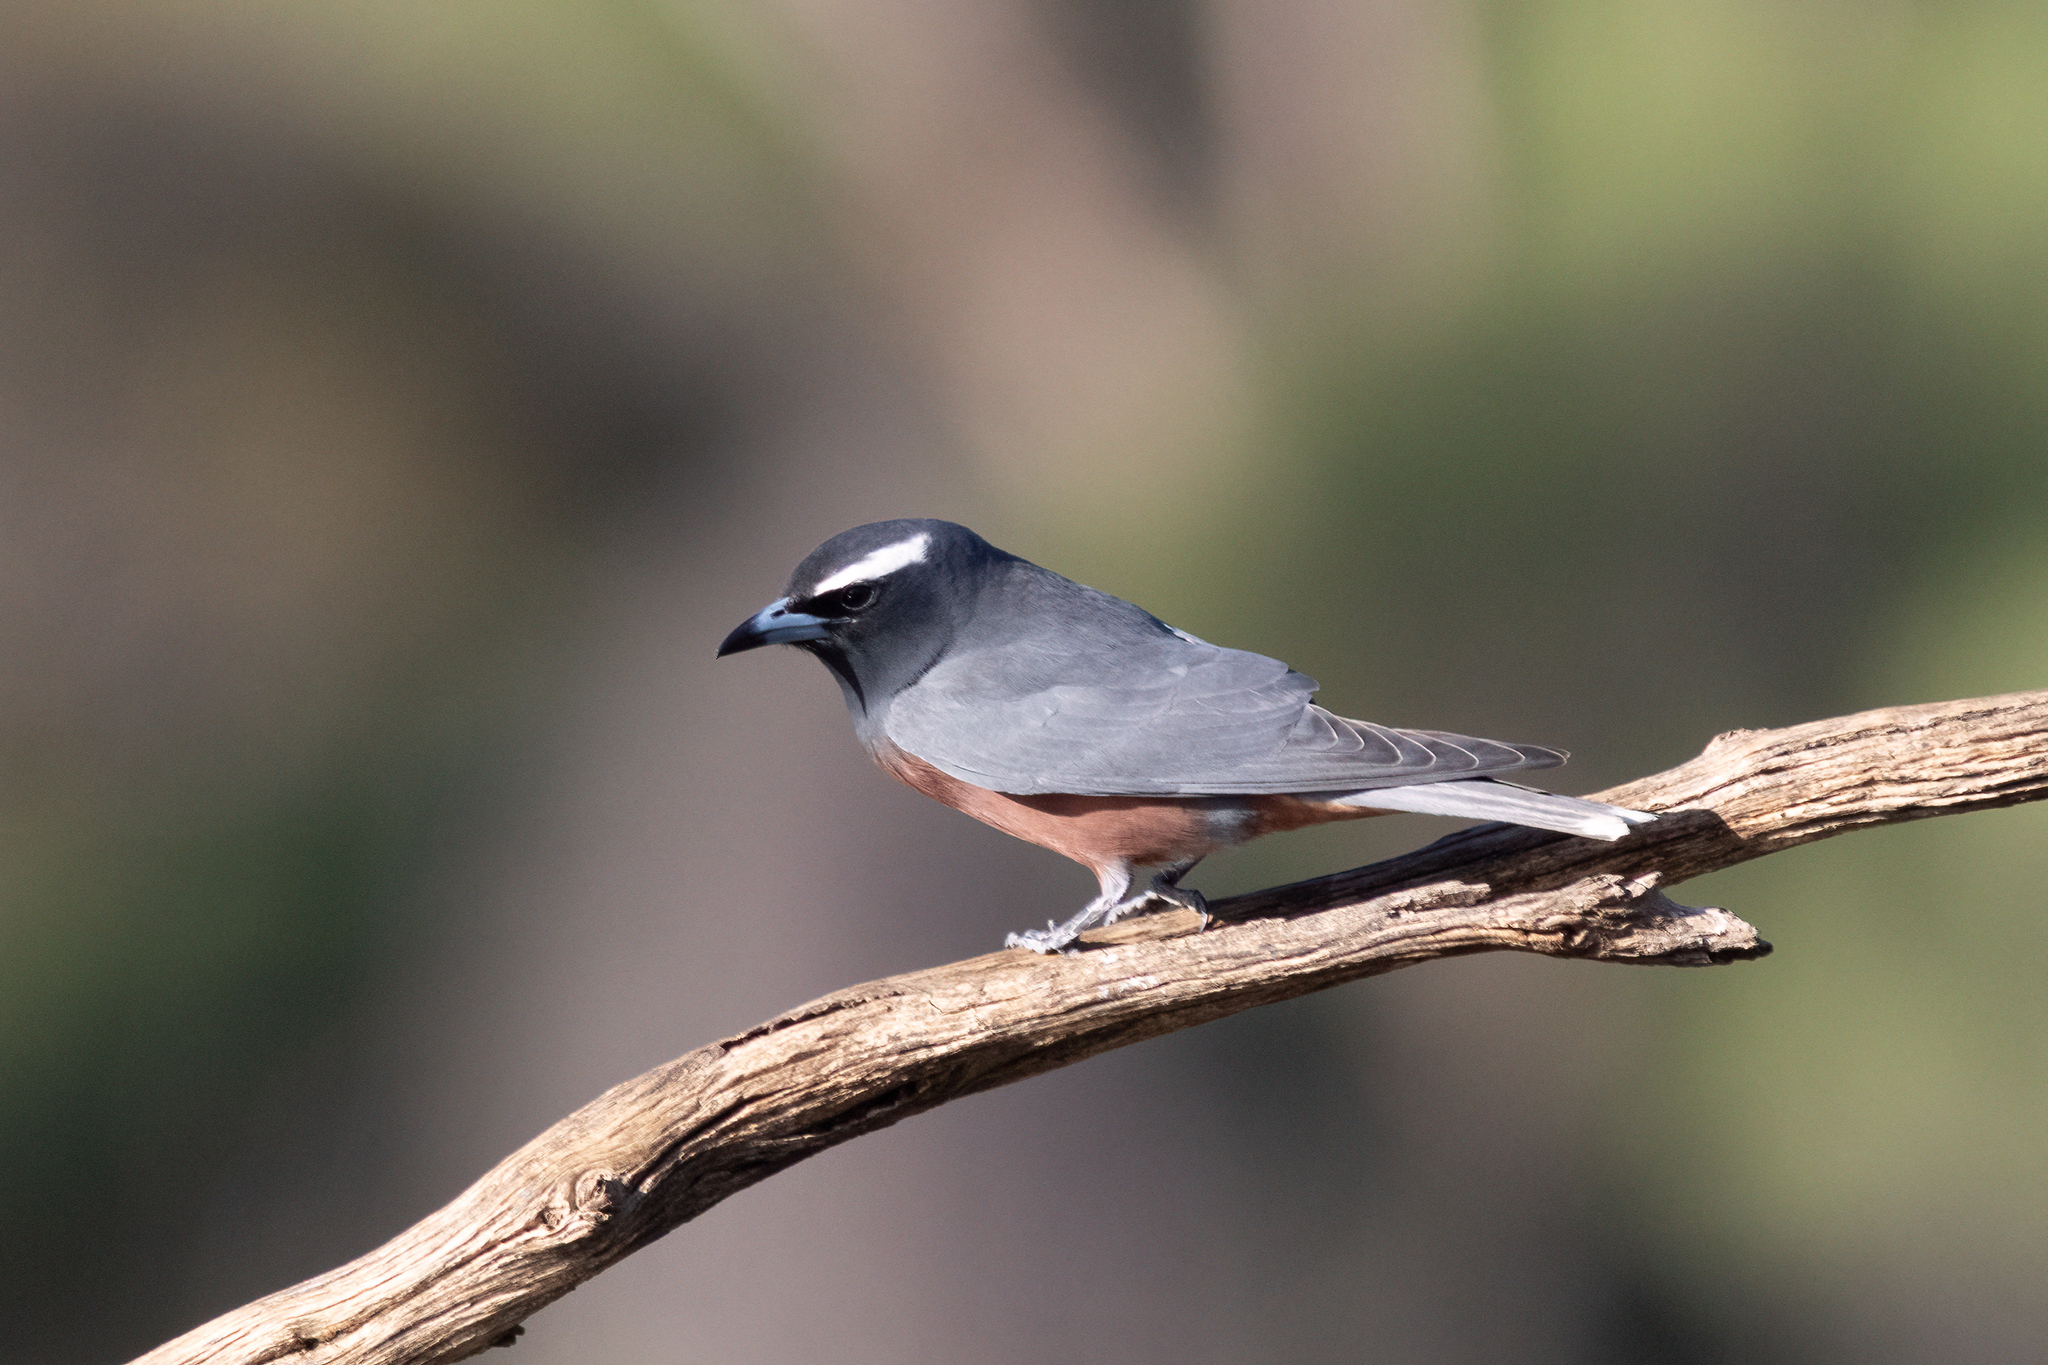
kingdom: Animalia
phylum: Chordata
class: Aves
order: Passeriformes
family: Artamidae
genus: Artamus
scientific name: Artamus superciliosus
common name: White-browed woodswallow
